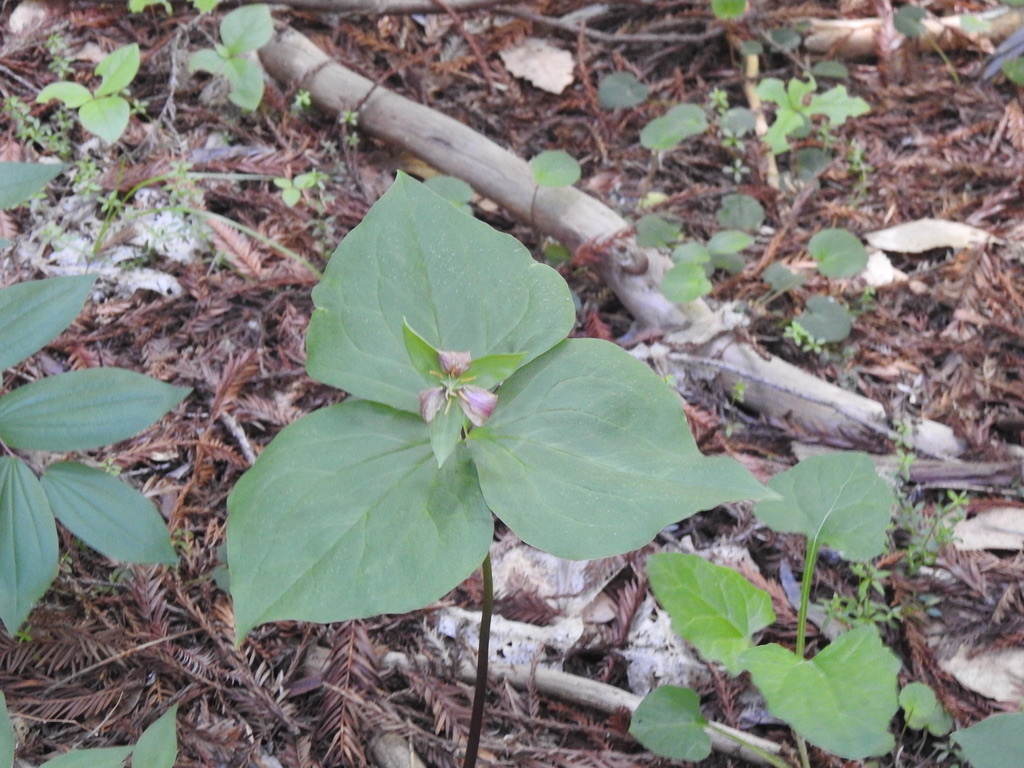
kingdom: Plantae
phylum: Tracheophyta
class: Liliopsida
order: Liliales
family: Melanthiaceae
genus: Trillium
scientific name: Trillium ovatum
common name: Pacific trillium
